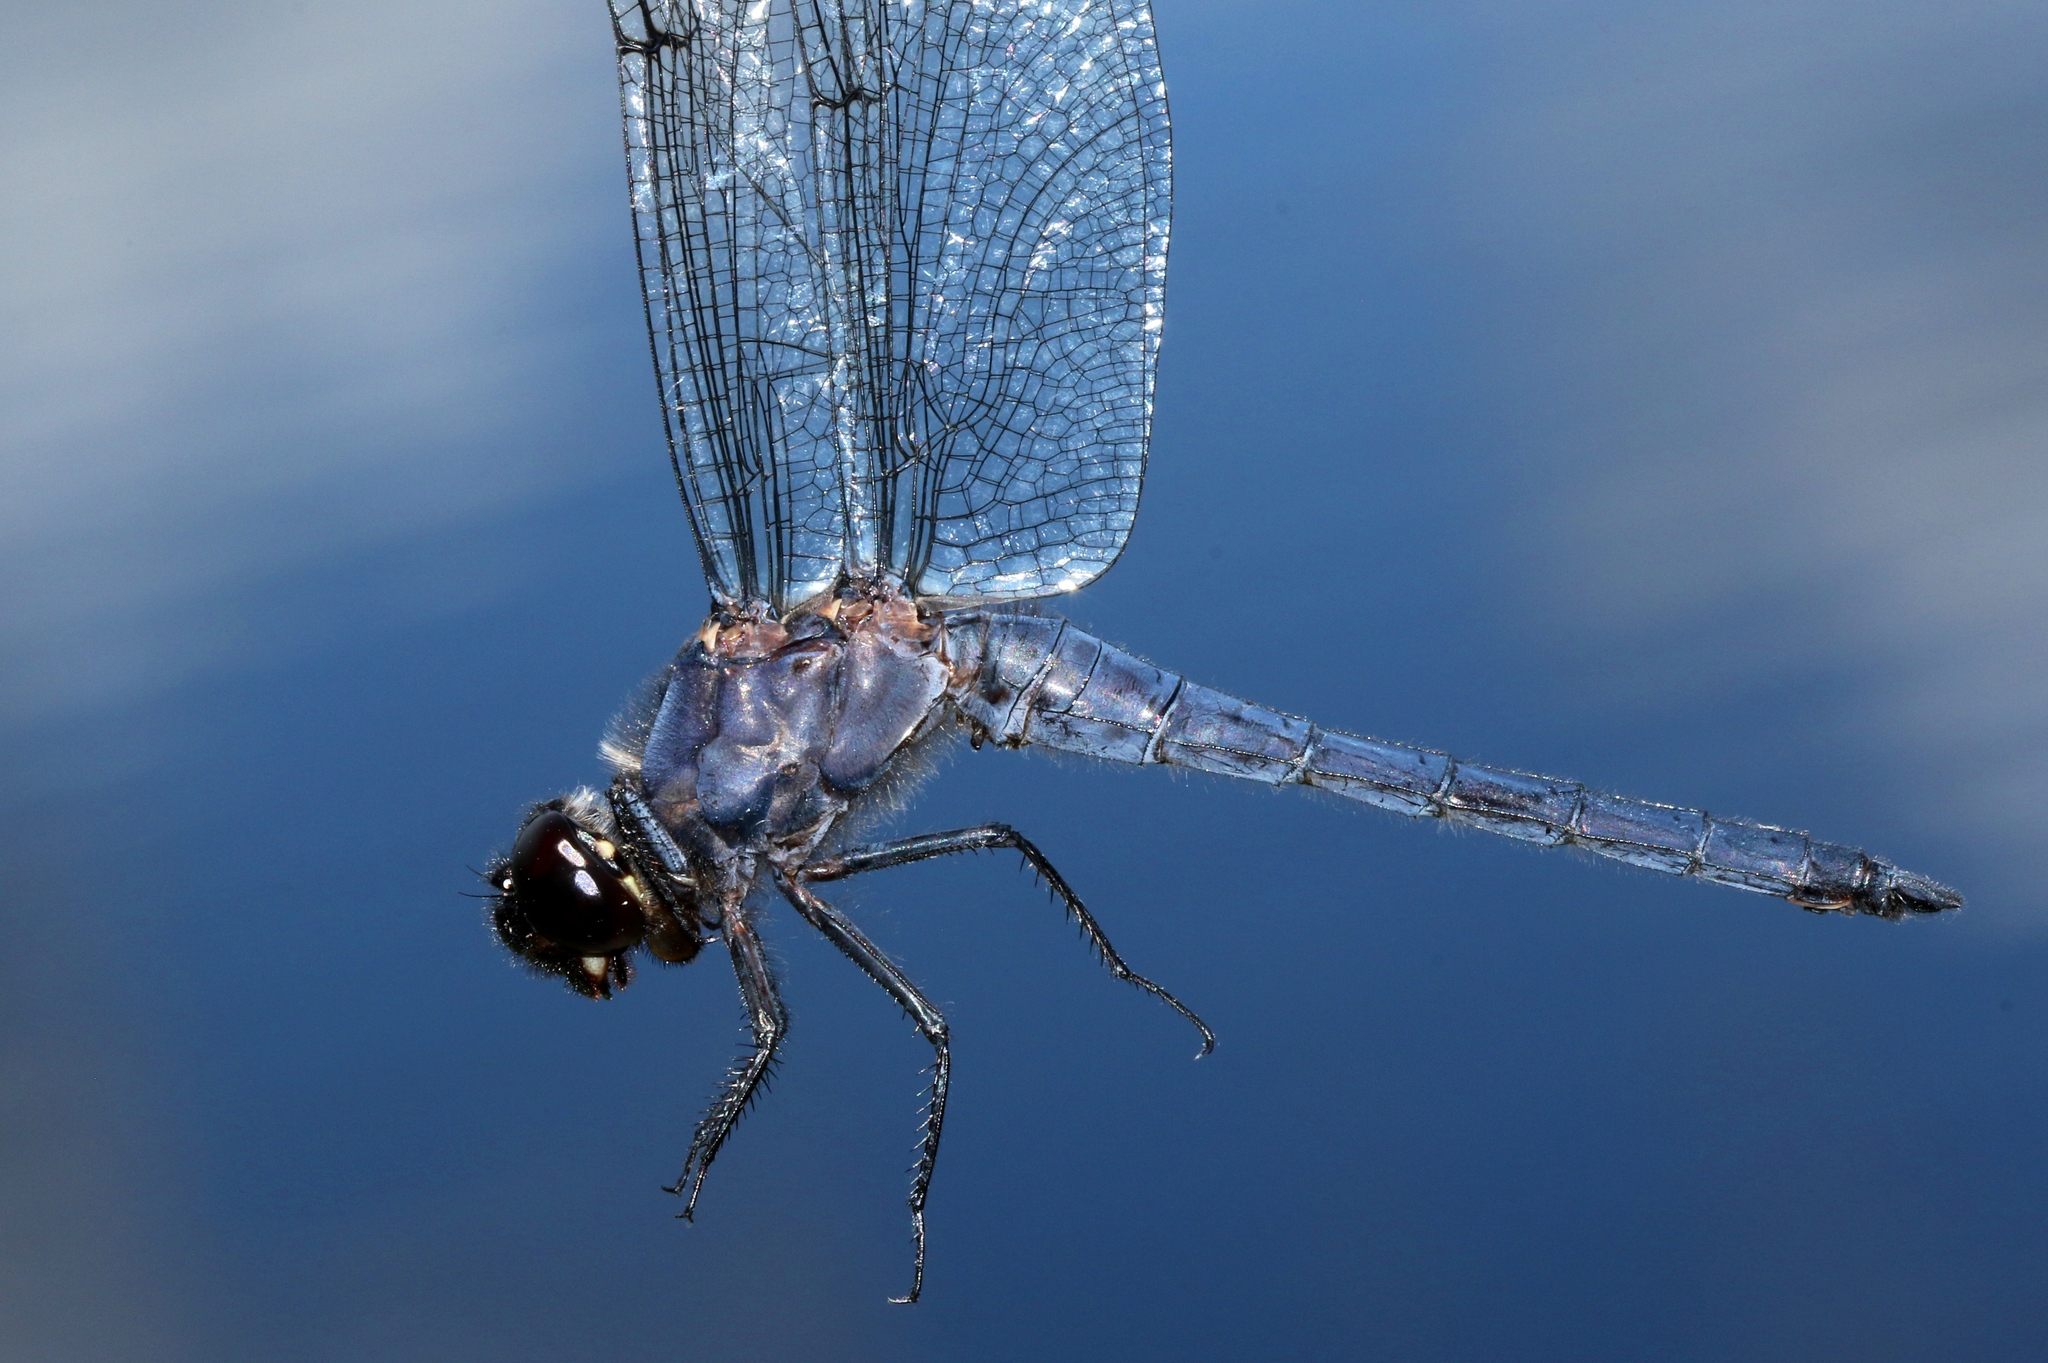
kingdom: Animalia
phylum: Arthropoda
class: Insecta
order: Odonata
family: Libellulidae
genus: Libellula
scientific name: Libellula incesta
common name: Slaty skimmer
